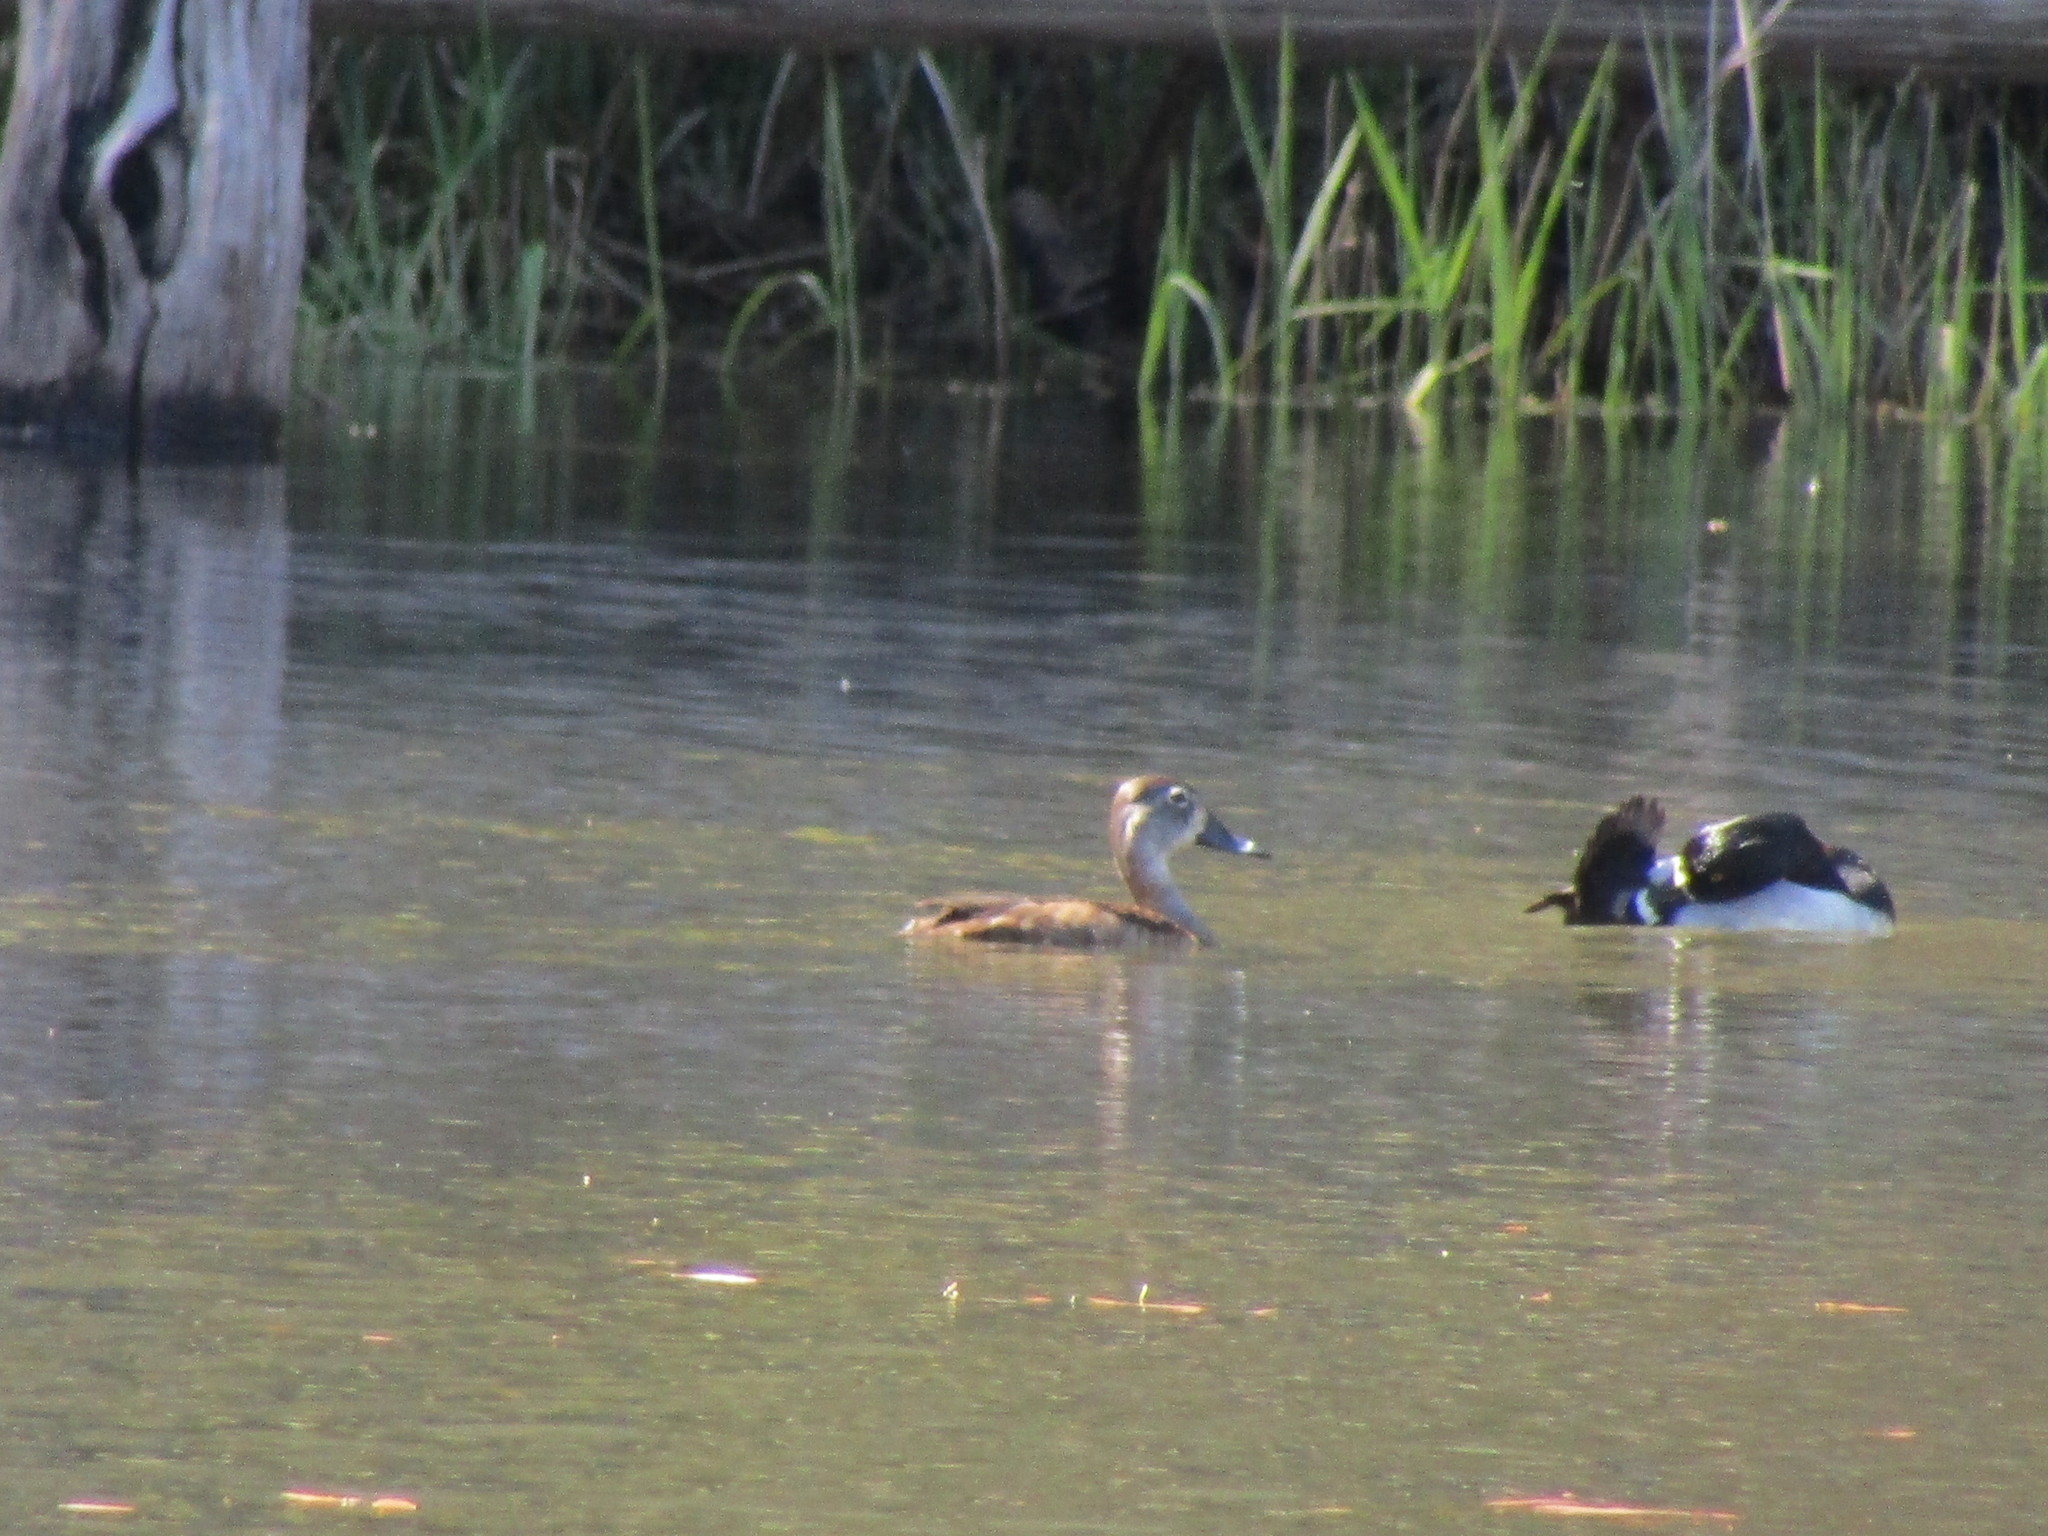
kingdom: Animalia
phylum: Chordata
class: Aves
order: Anseriformes
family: Anatidae
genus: Aythya
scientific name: Aythya collaris
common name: Ring-necked duck
